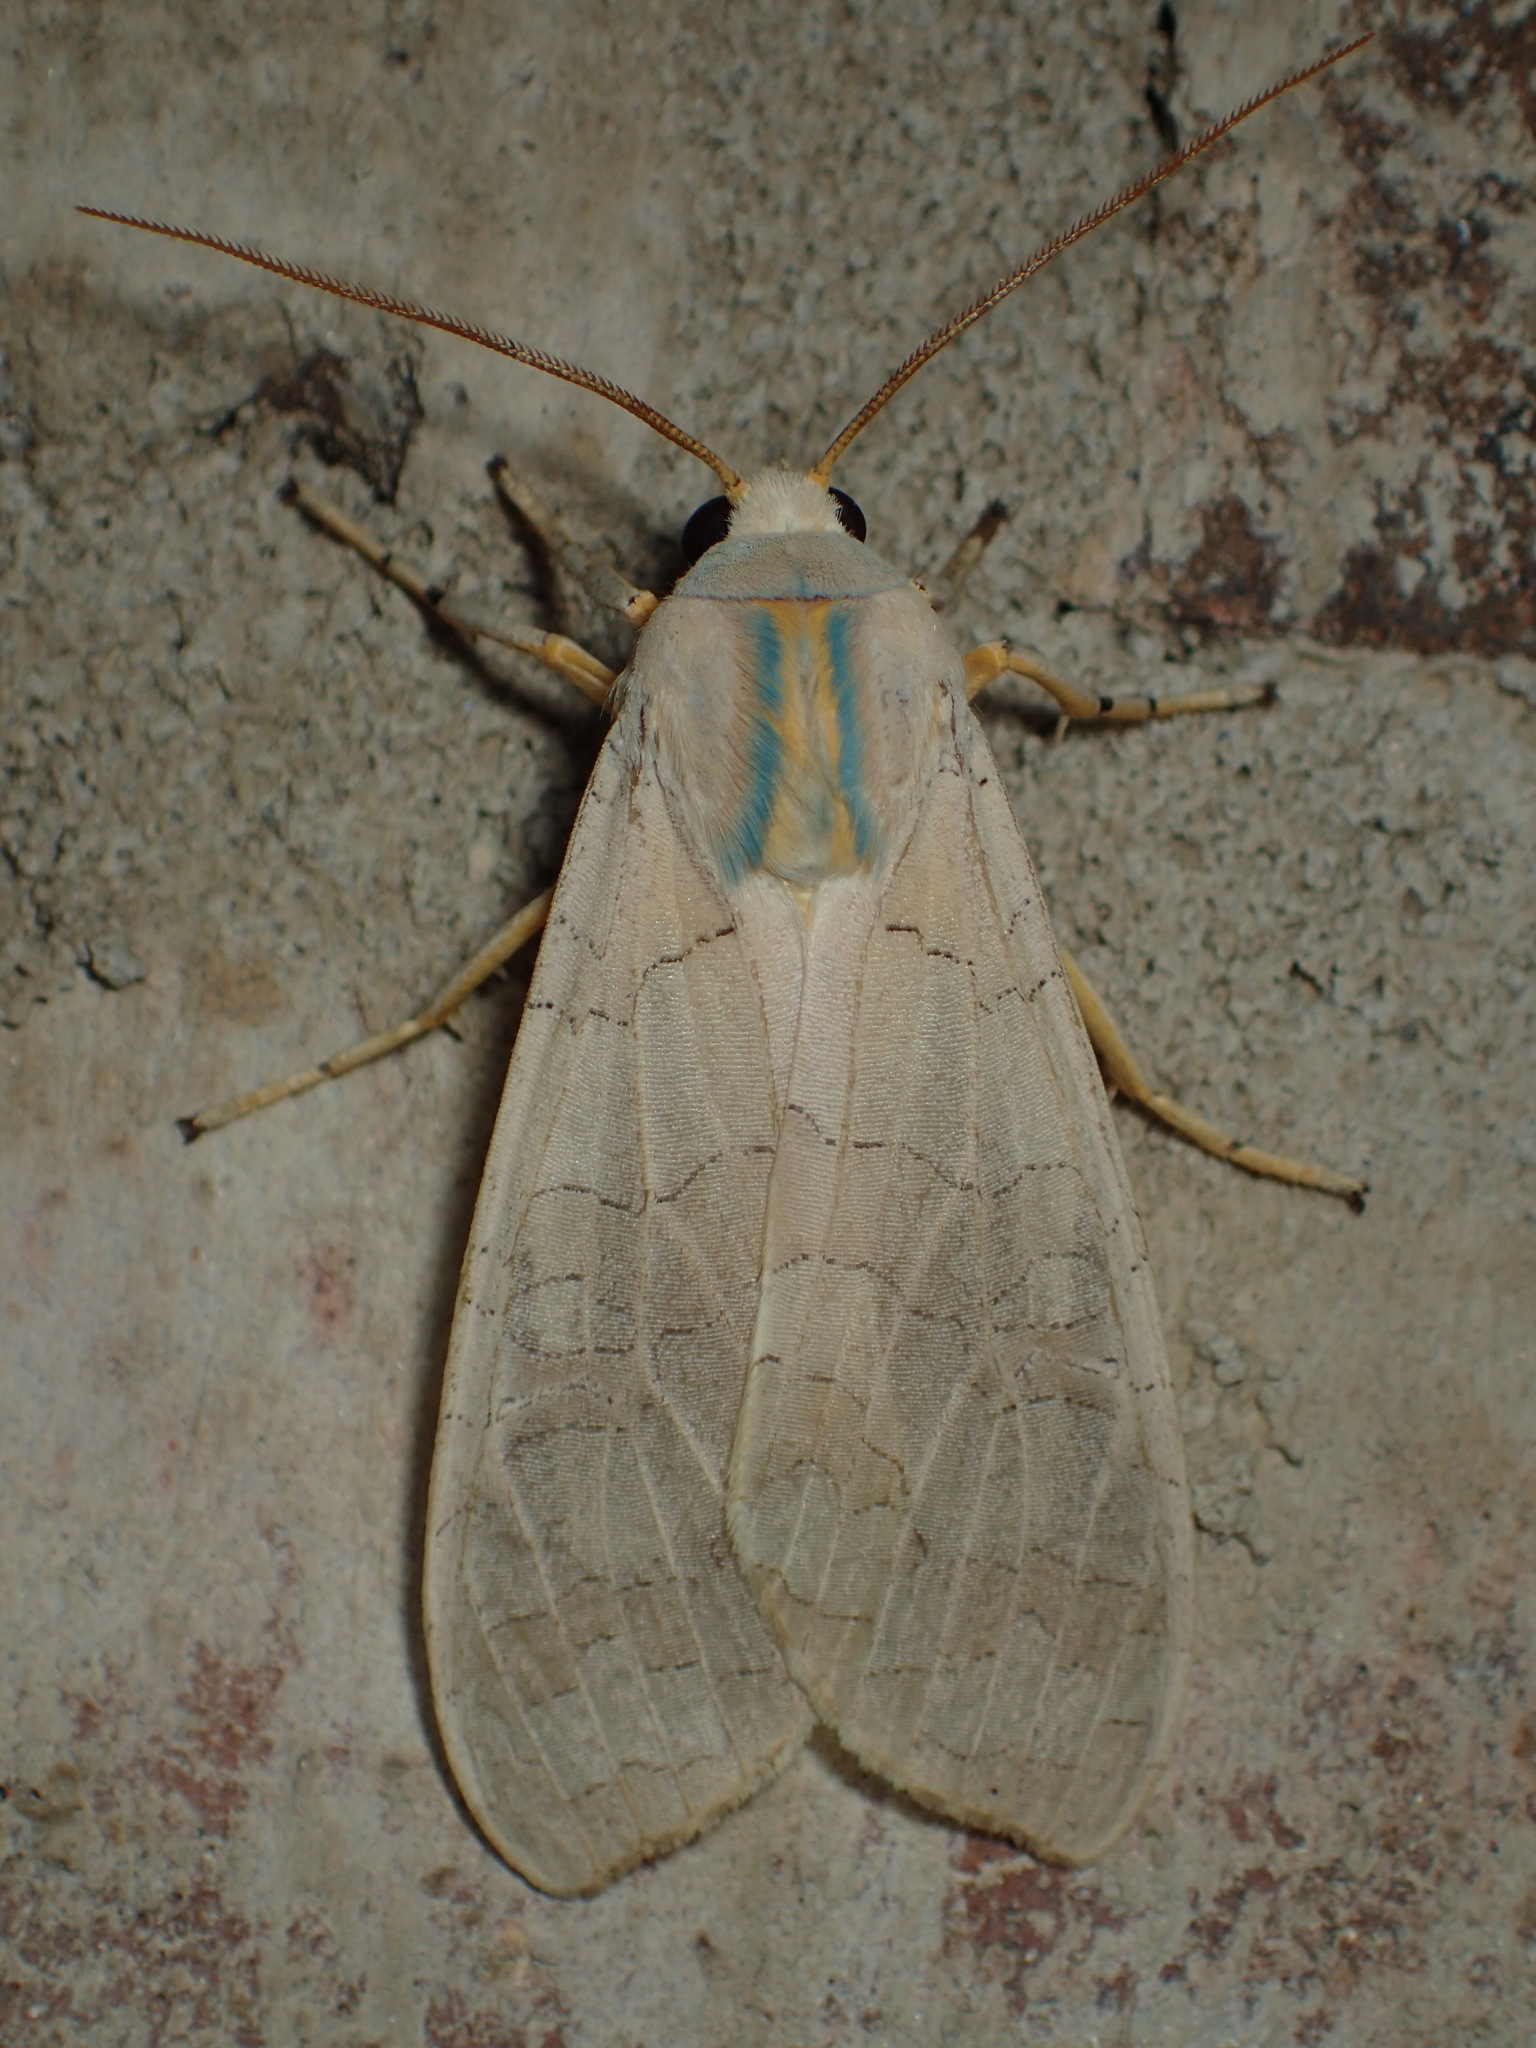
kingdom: Animalia
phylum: Arthropoda
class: Insecta
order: Lepidoptera
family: Erebidae
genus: Halysidota
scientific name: Halysidota
